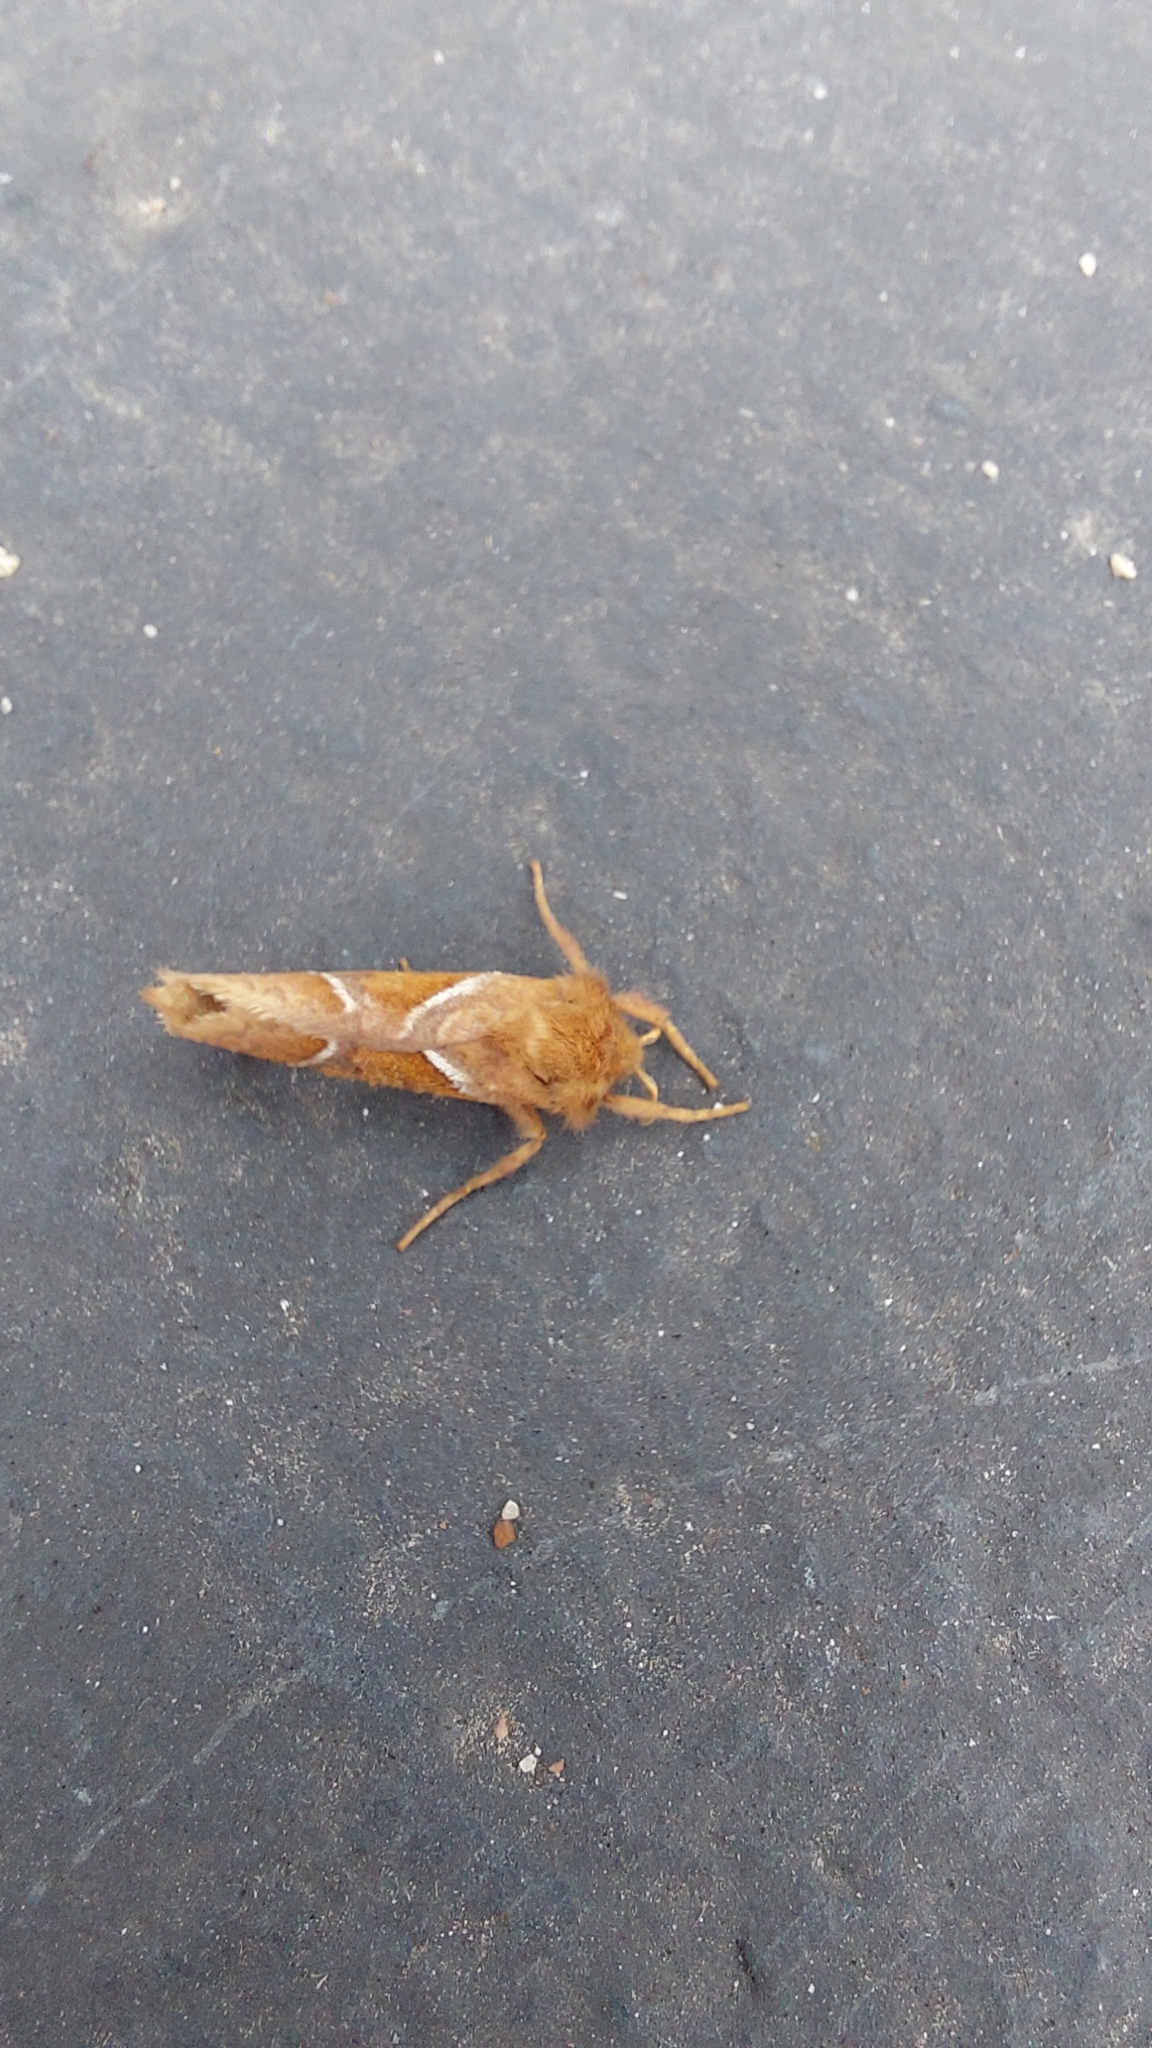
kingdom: Animalia
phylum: Arthropoda
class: Insecta
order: Lepidoptera
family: Hepialidae
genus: Triodia
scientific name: Triodia sylvina
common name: Orange swift
